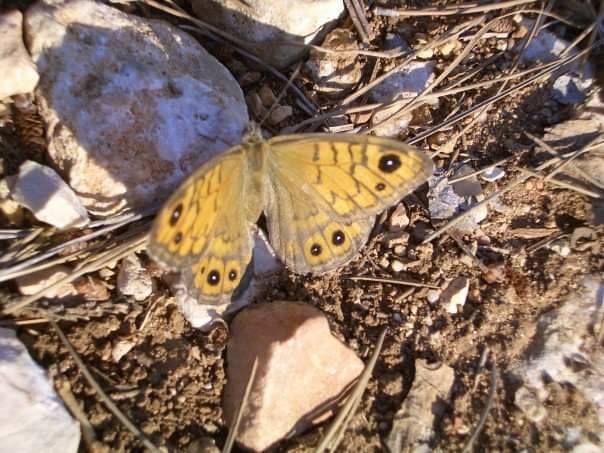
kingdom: Animalia
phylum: Arthropoda
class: Insecta
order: Lepidoptera
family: Nymphalidae
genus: Pararge
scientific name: Pararge Lasiommata megera
